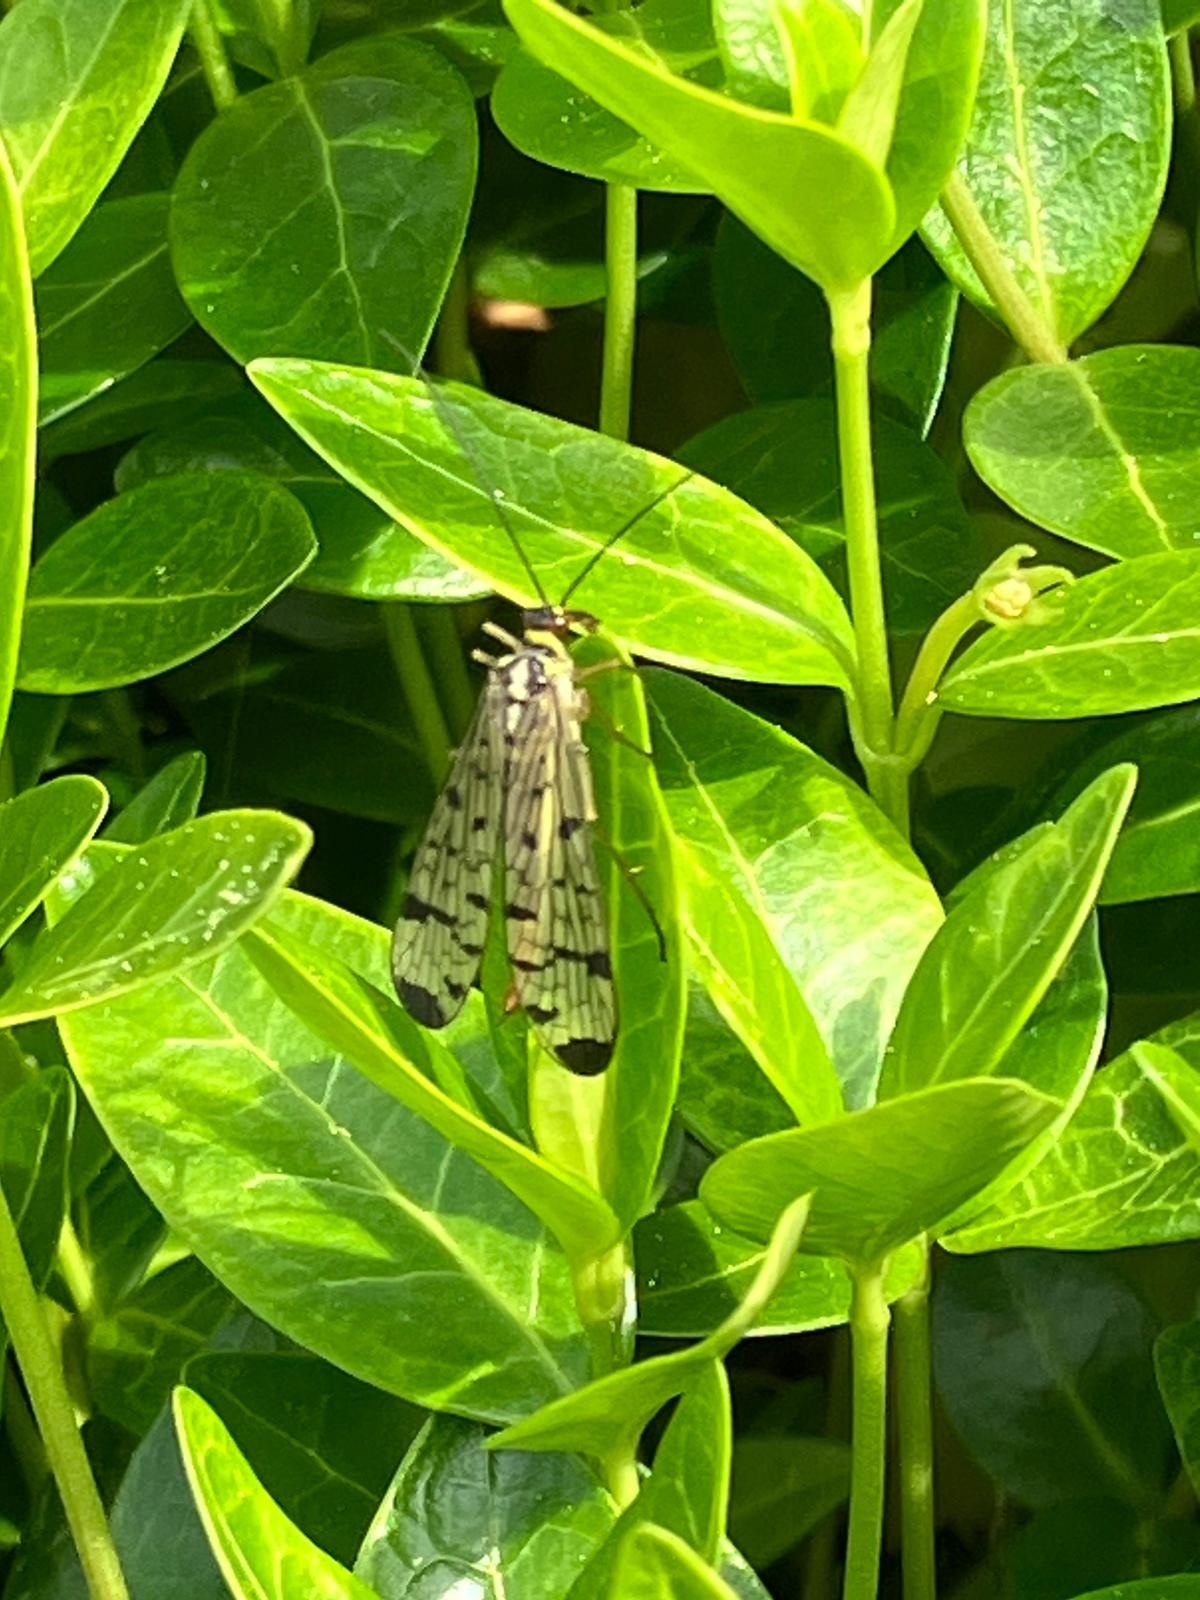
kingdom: Animalia
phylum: Arthropoda
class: Insecta
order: Mecoptera
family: Panorpidae
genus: Panorpa
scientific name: Panorpa germanica
